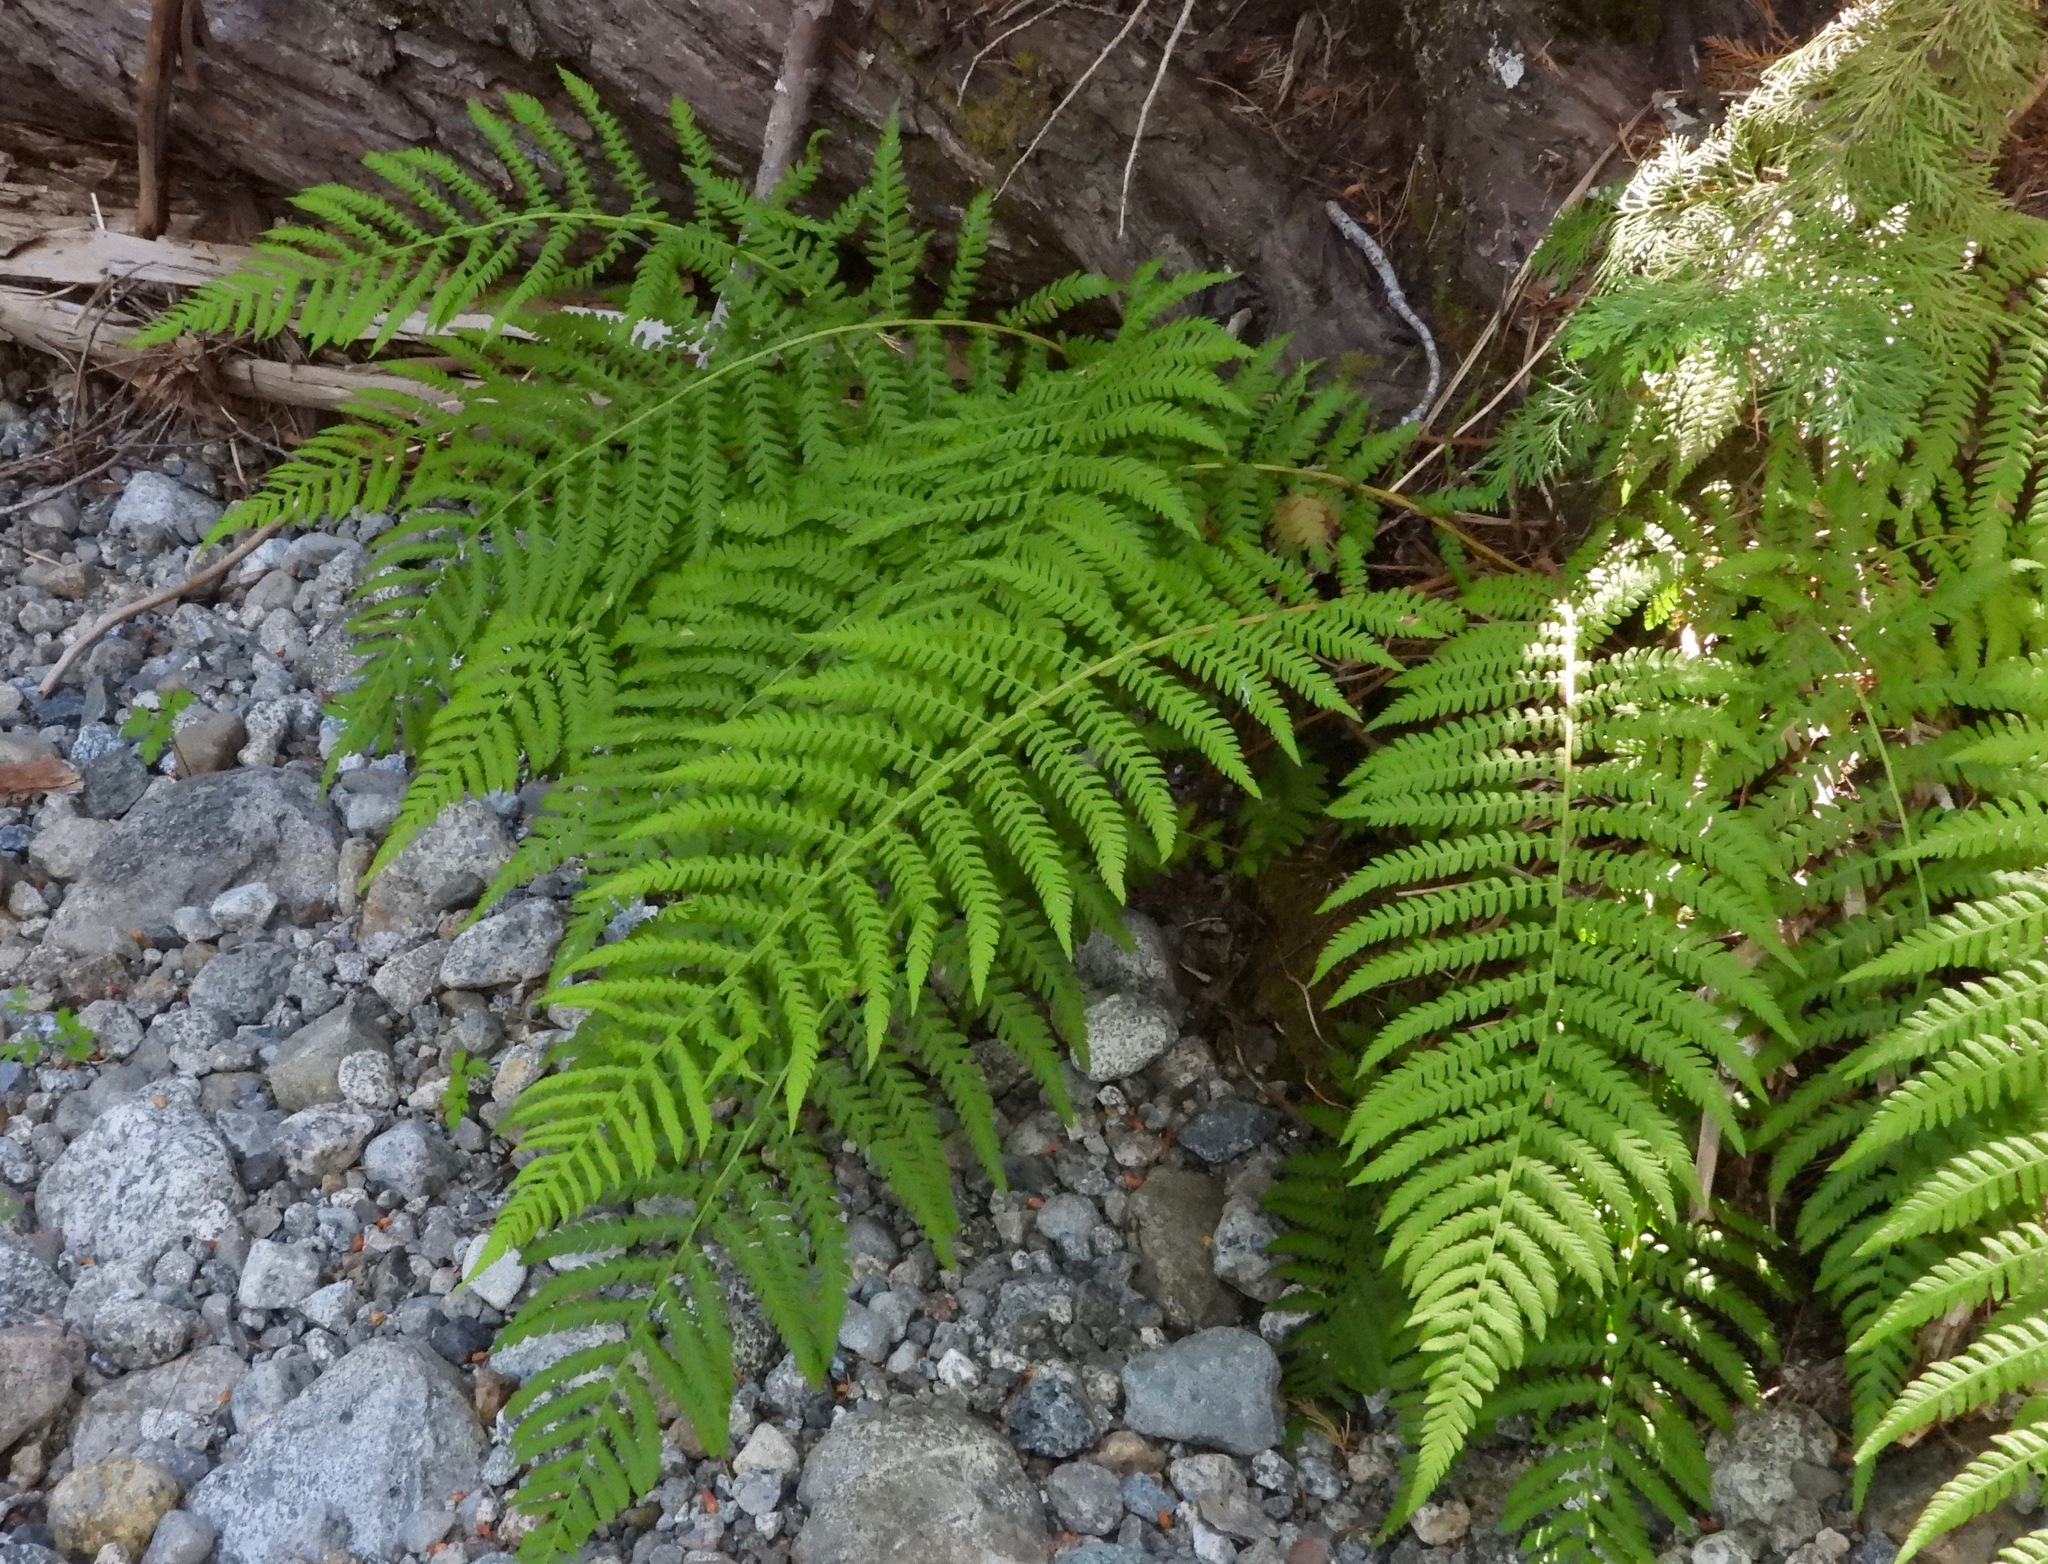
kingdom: Plantae
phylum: Tracheophyta
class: Polypodiopsida
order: Polypodiales
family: Athyriaceae
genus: Athyrium
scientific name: Athyrium filix-femina
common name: Lady fern
